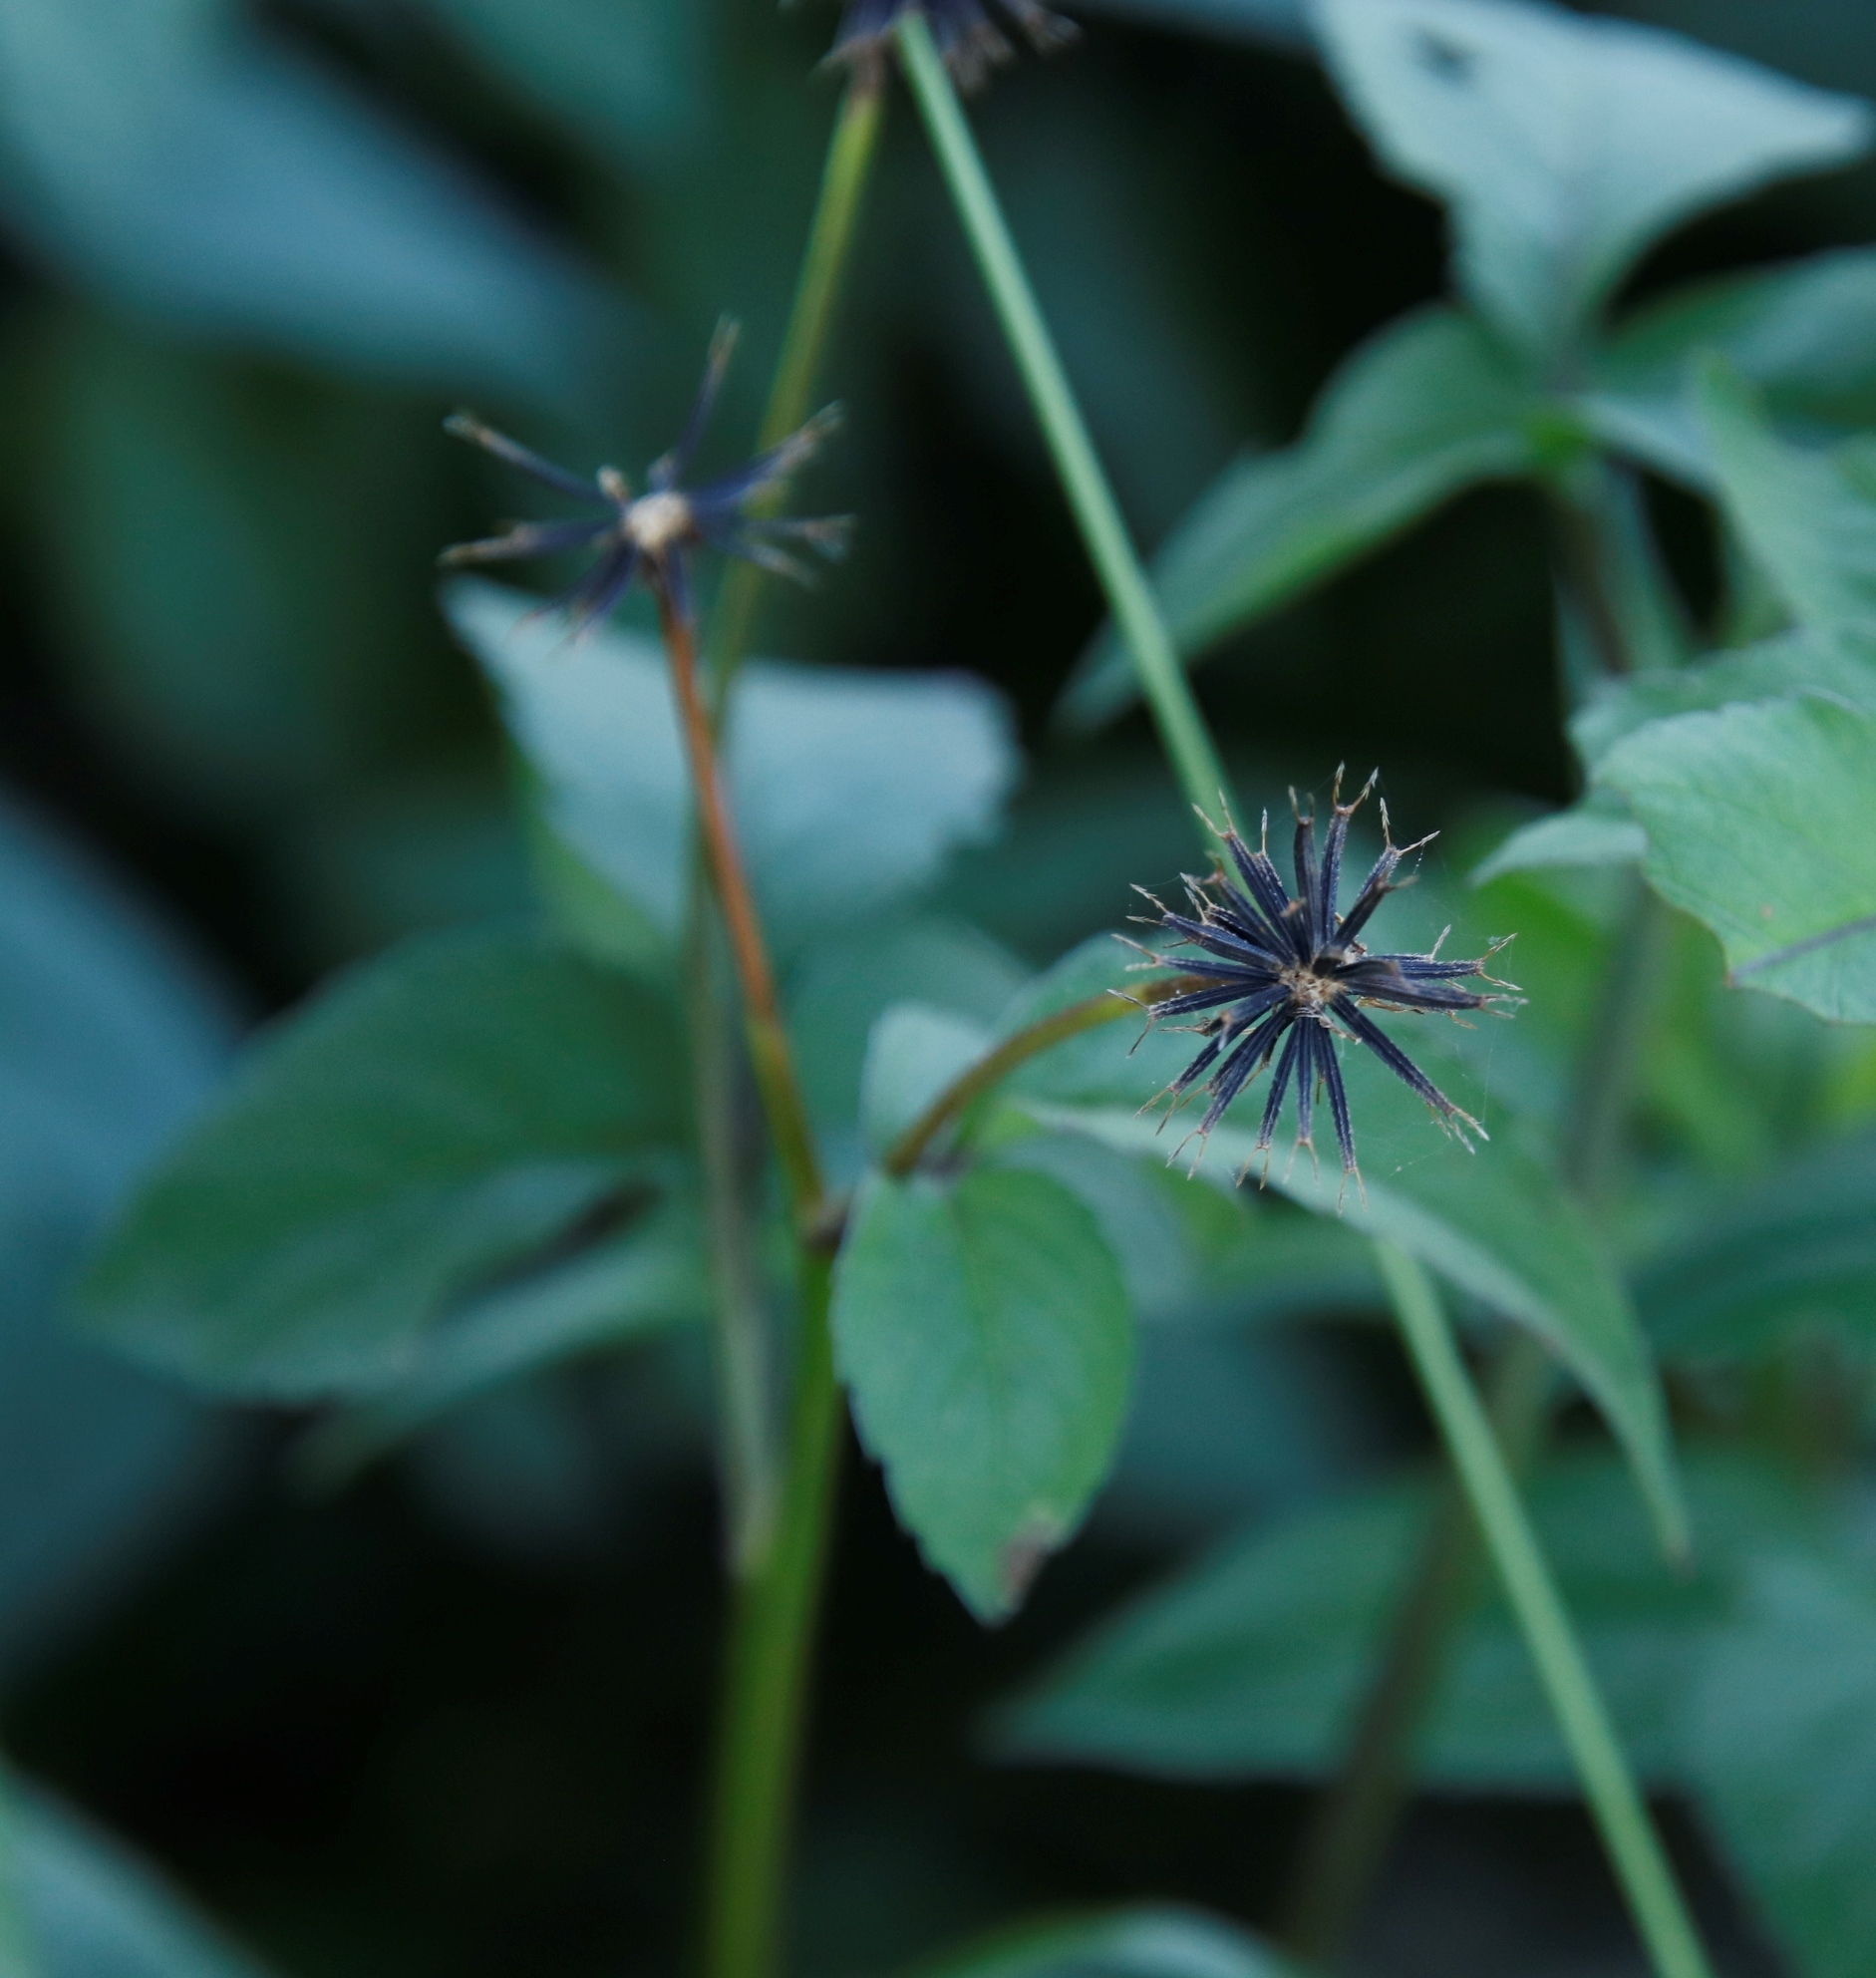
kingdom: Plantae
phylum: Tracheophyta
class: Magnoliopsida
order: Asterales
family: Asteraceae
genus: Bidens
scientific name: Bidens pilosa
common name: Black-jack
